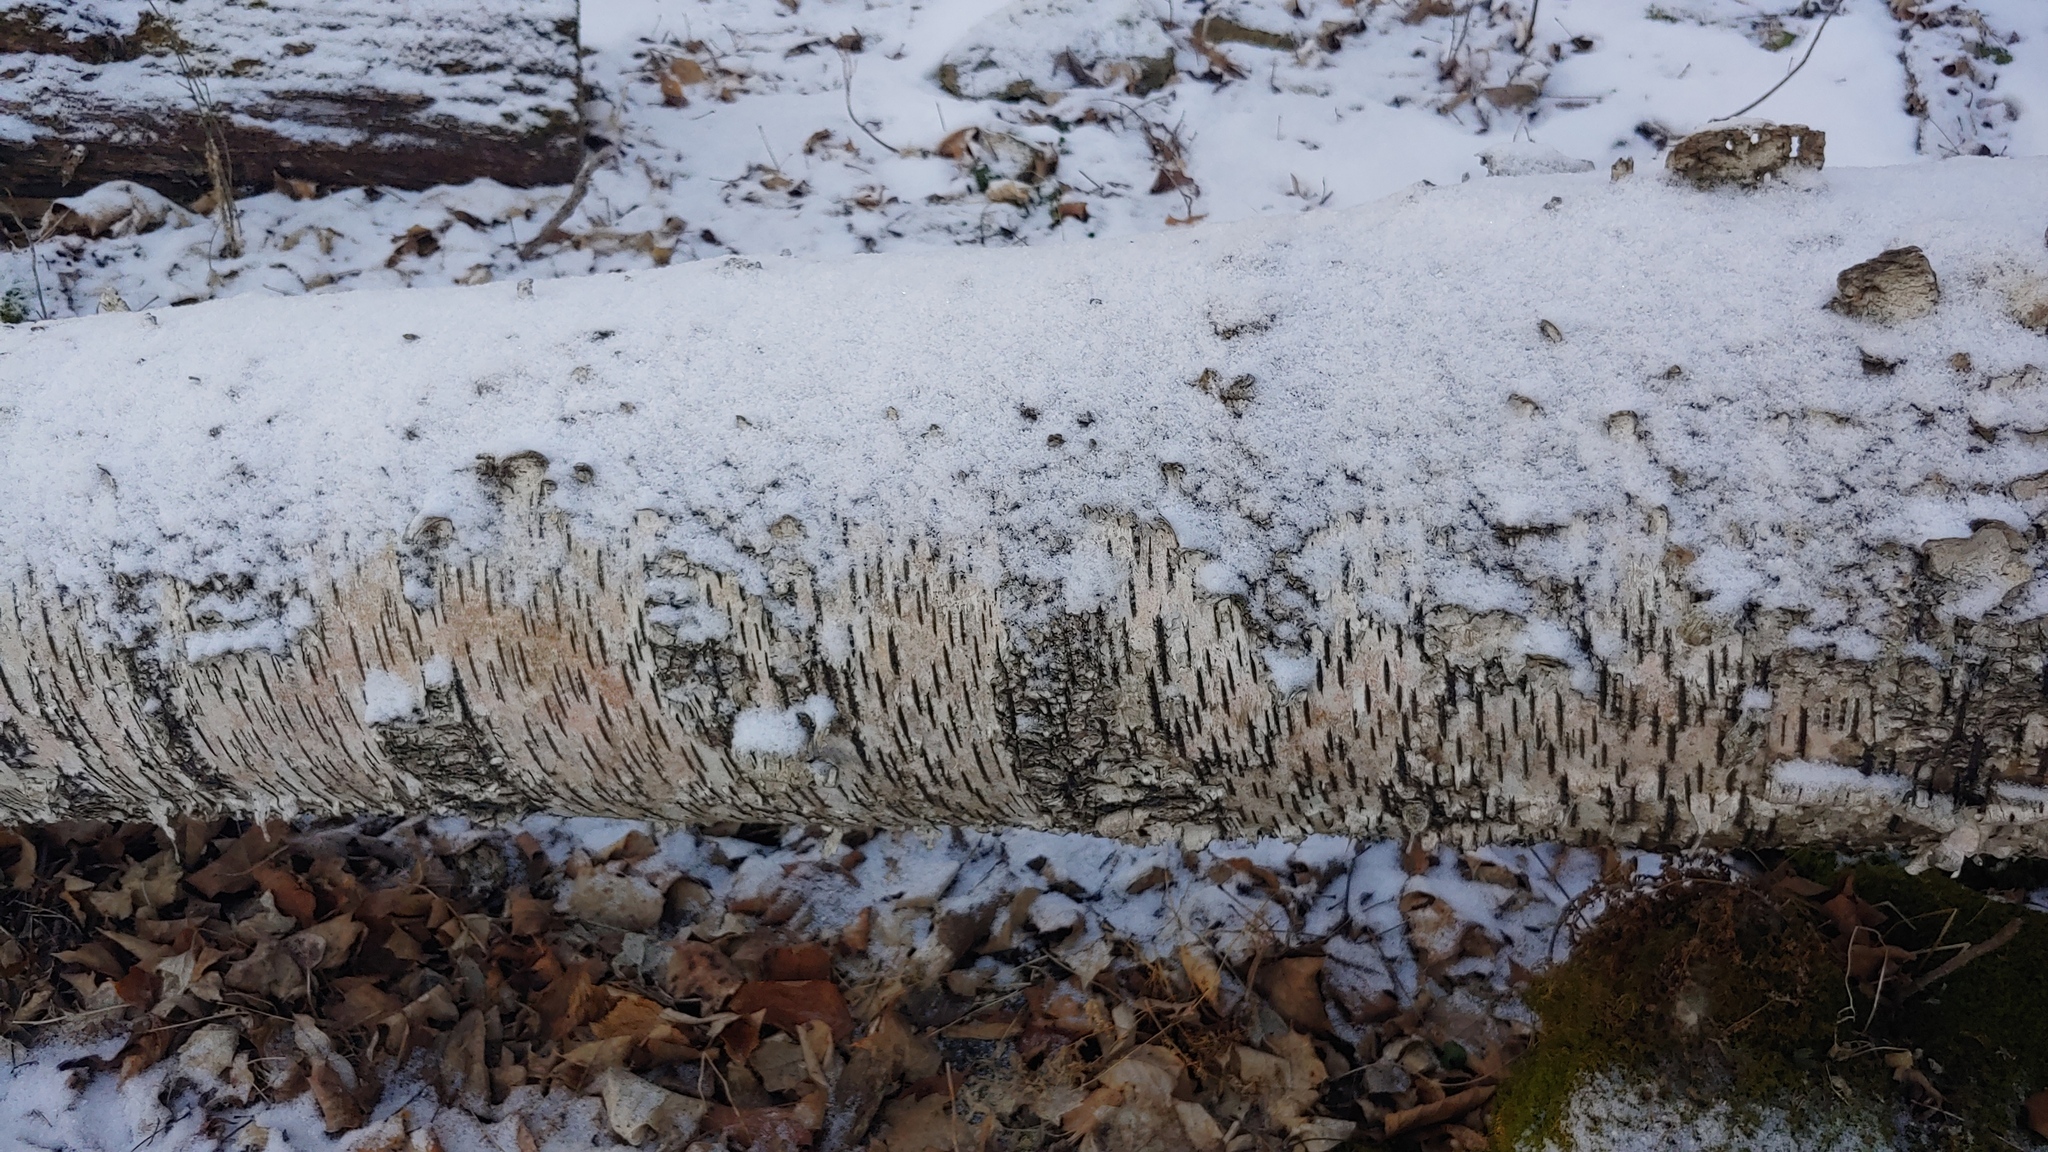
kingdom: Plantae
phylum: Tracheophyta
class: Magnoliopsida
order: Fagales
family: Betulaceae
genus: Betula
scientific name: Betula papyrifera
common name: Paper birch
